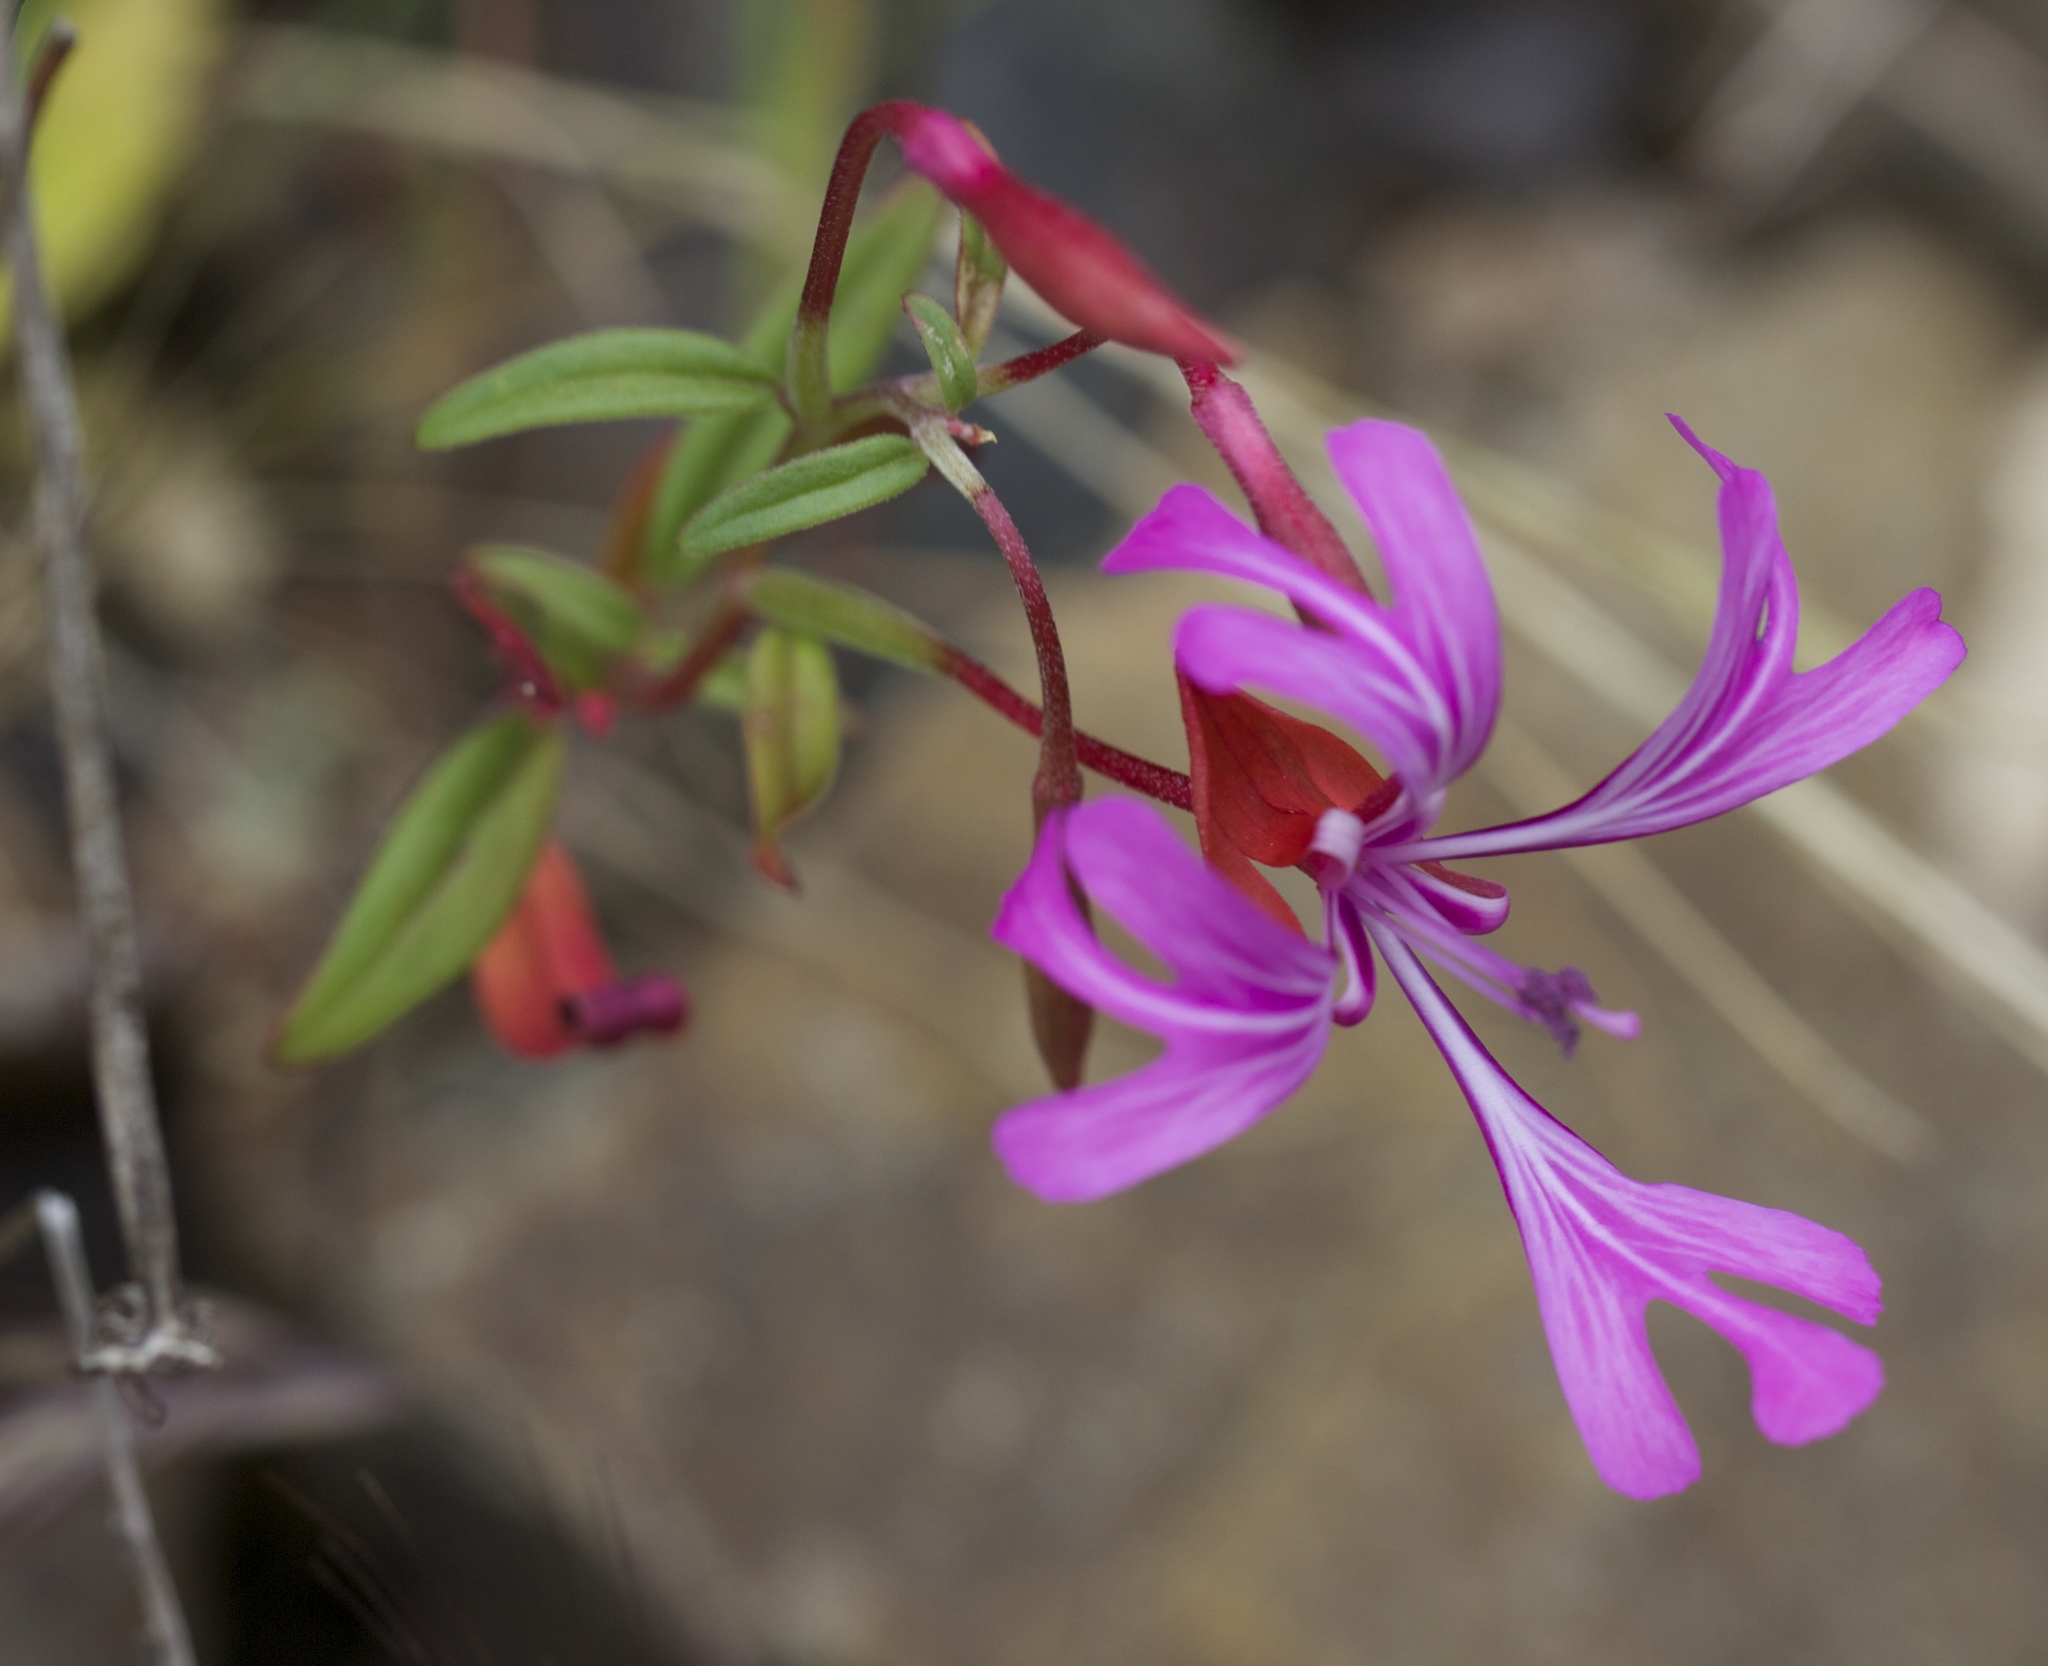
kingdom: Plantae
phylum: Tracheophyta
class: Magnoliopsida
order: Myrtales
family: Onagraceae
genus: Clarkia
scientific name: Clarkia concinna
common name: Red-ribbons
